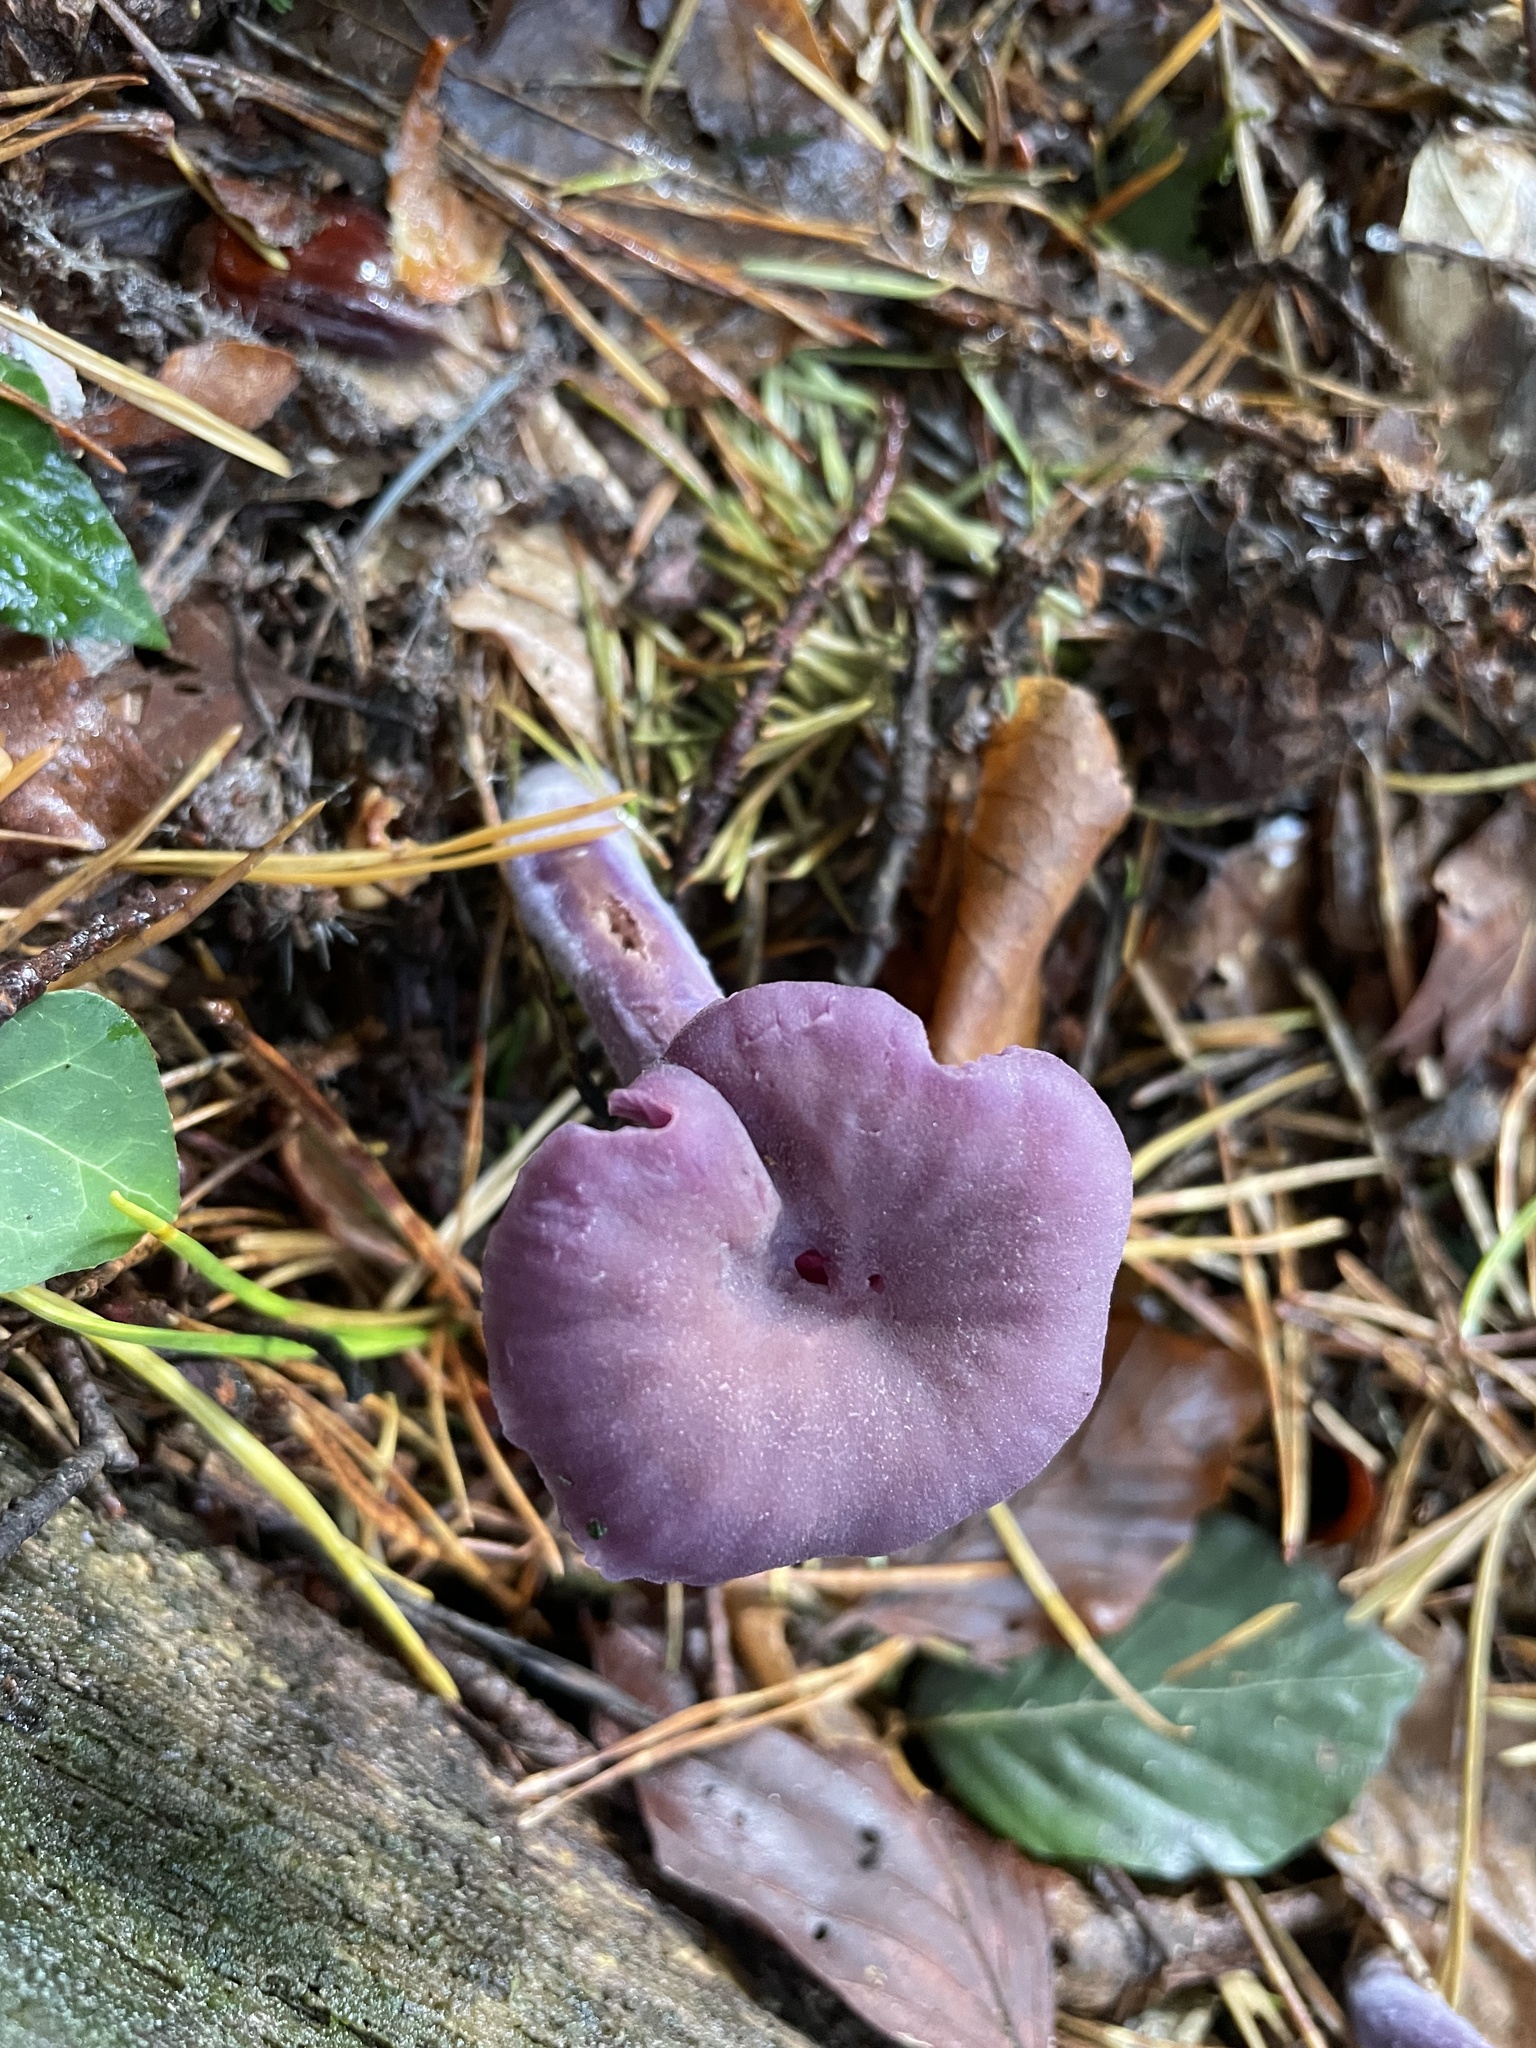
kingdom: Fungi
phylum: Basidiomycota
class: Agaricomycetes
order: Agaricales
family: Hydnangiaceae
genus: Laccaria
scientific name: Laccaria amethystina
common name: Amethyst deceiver
